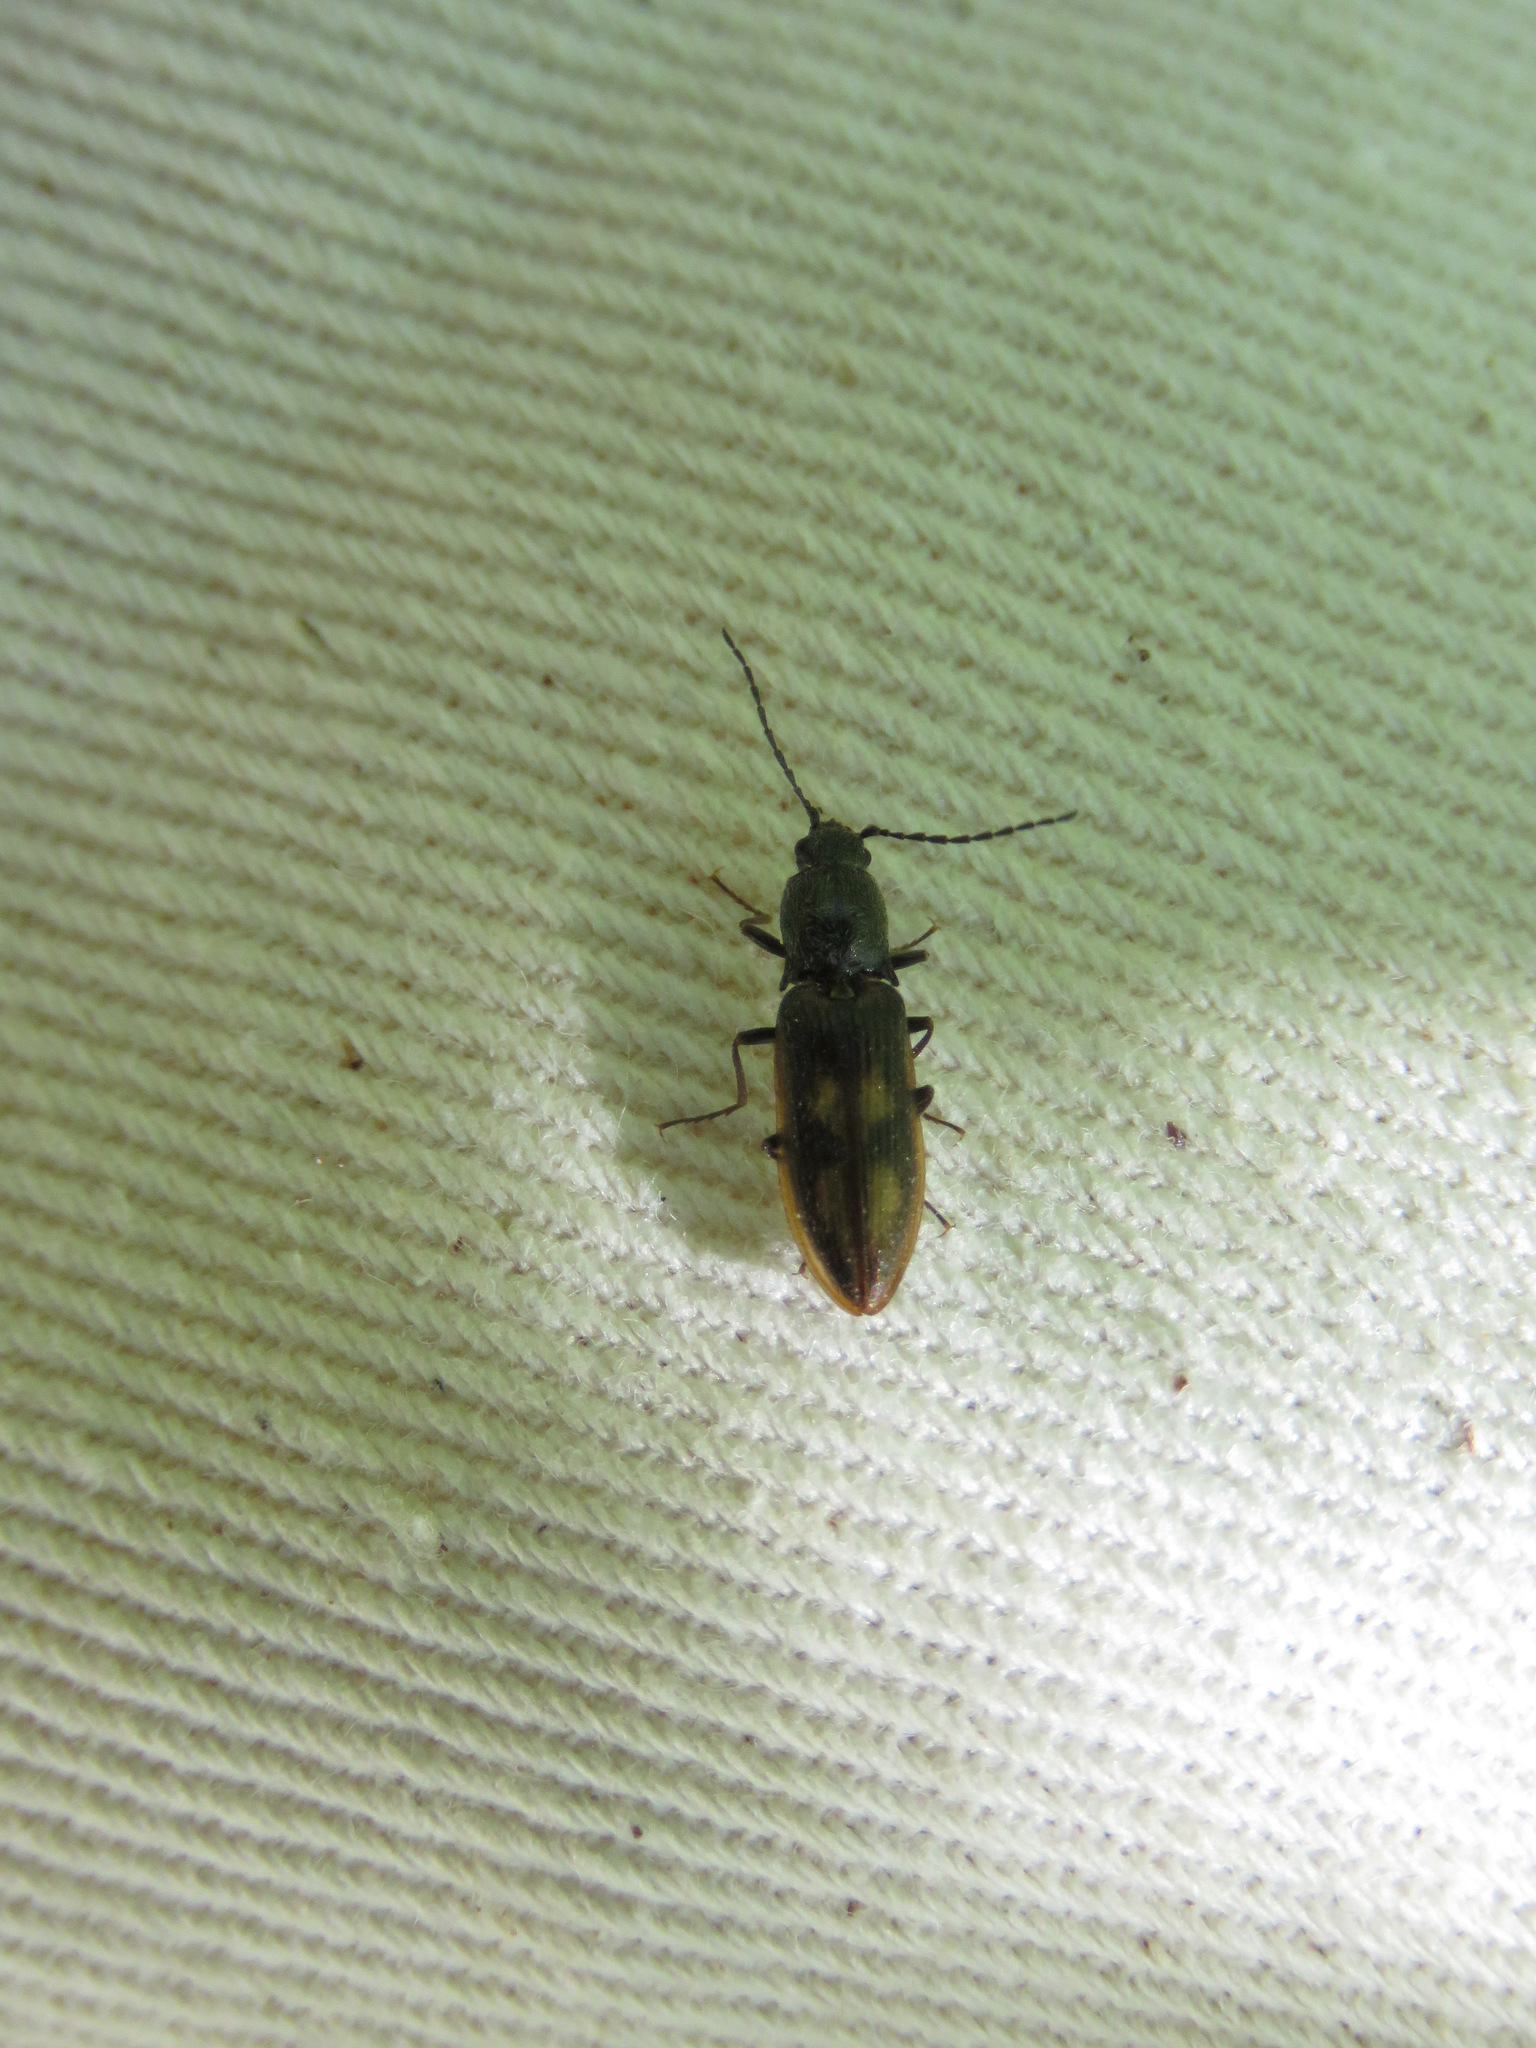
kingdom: Animalia
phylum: Arthropoda
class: Insecta
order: Coleoptera
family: Elateridae
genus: Liotrichus
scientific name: Liotrichus umbripennis
